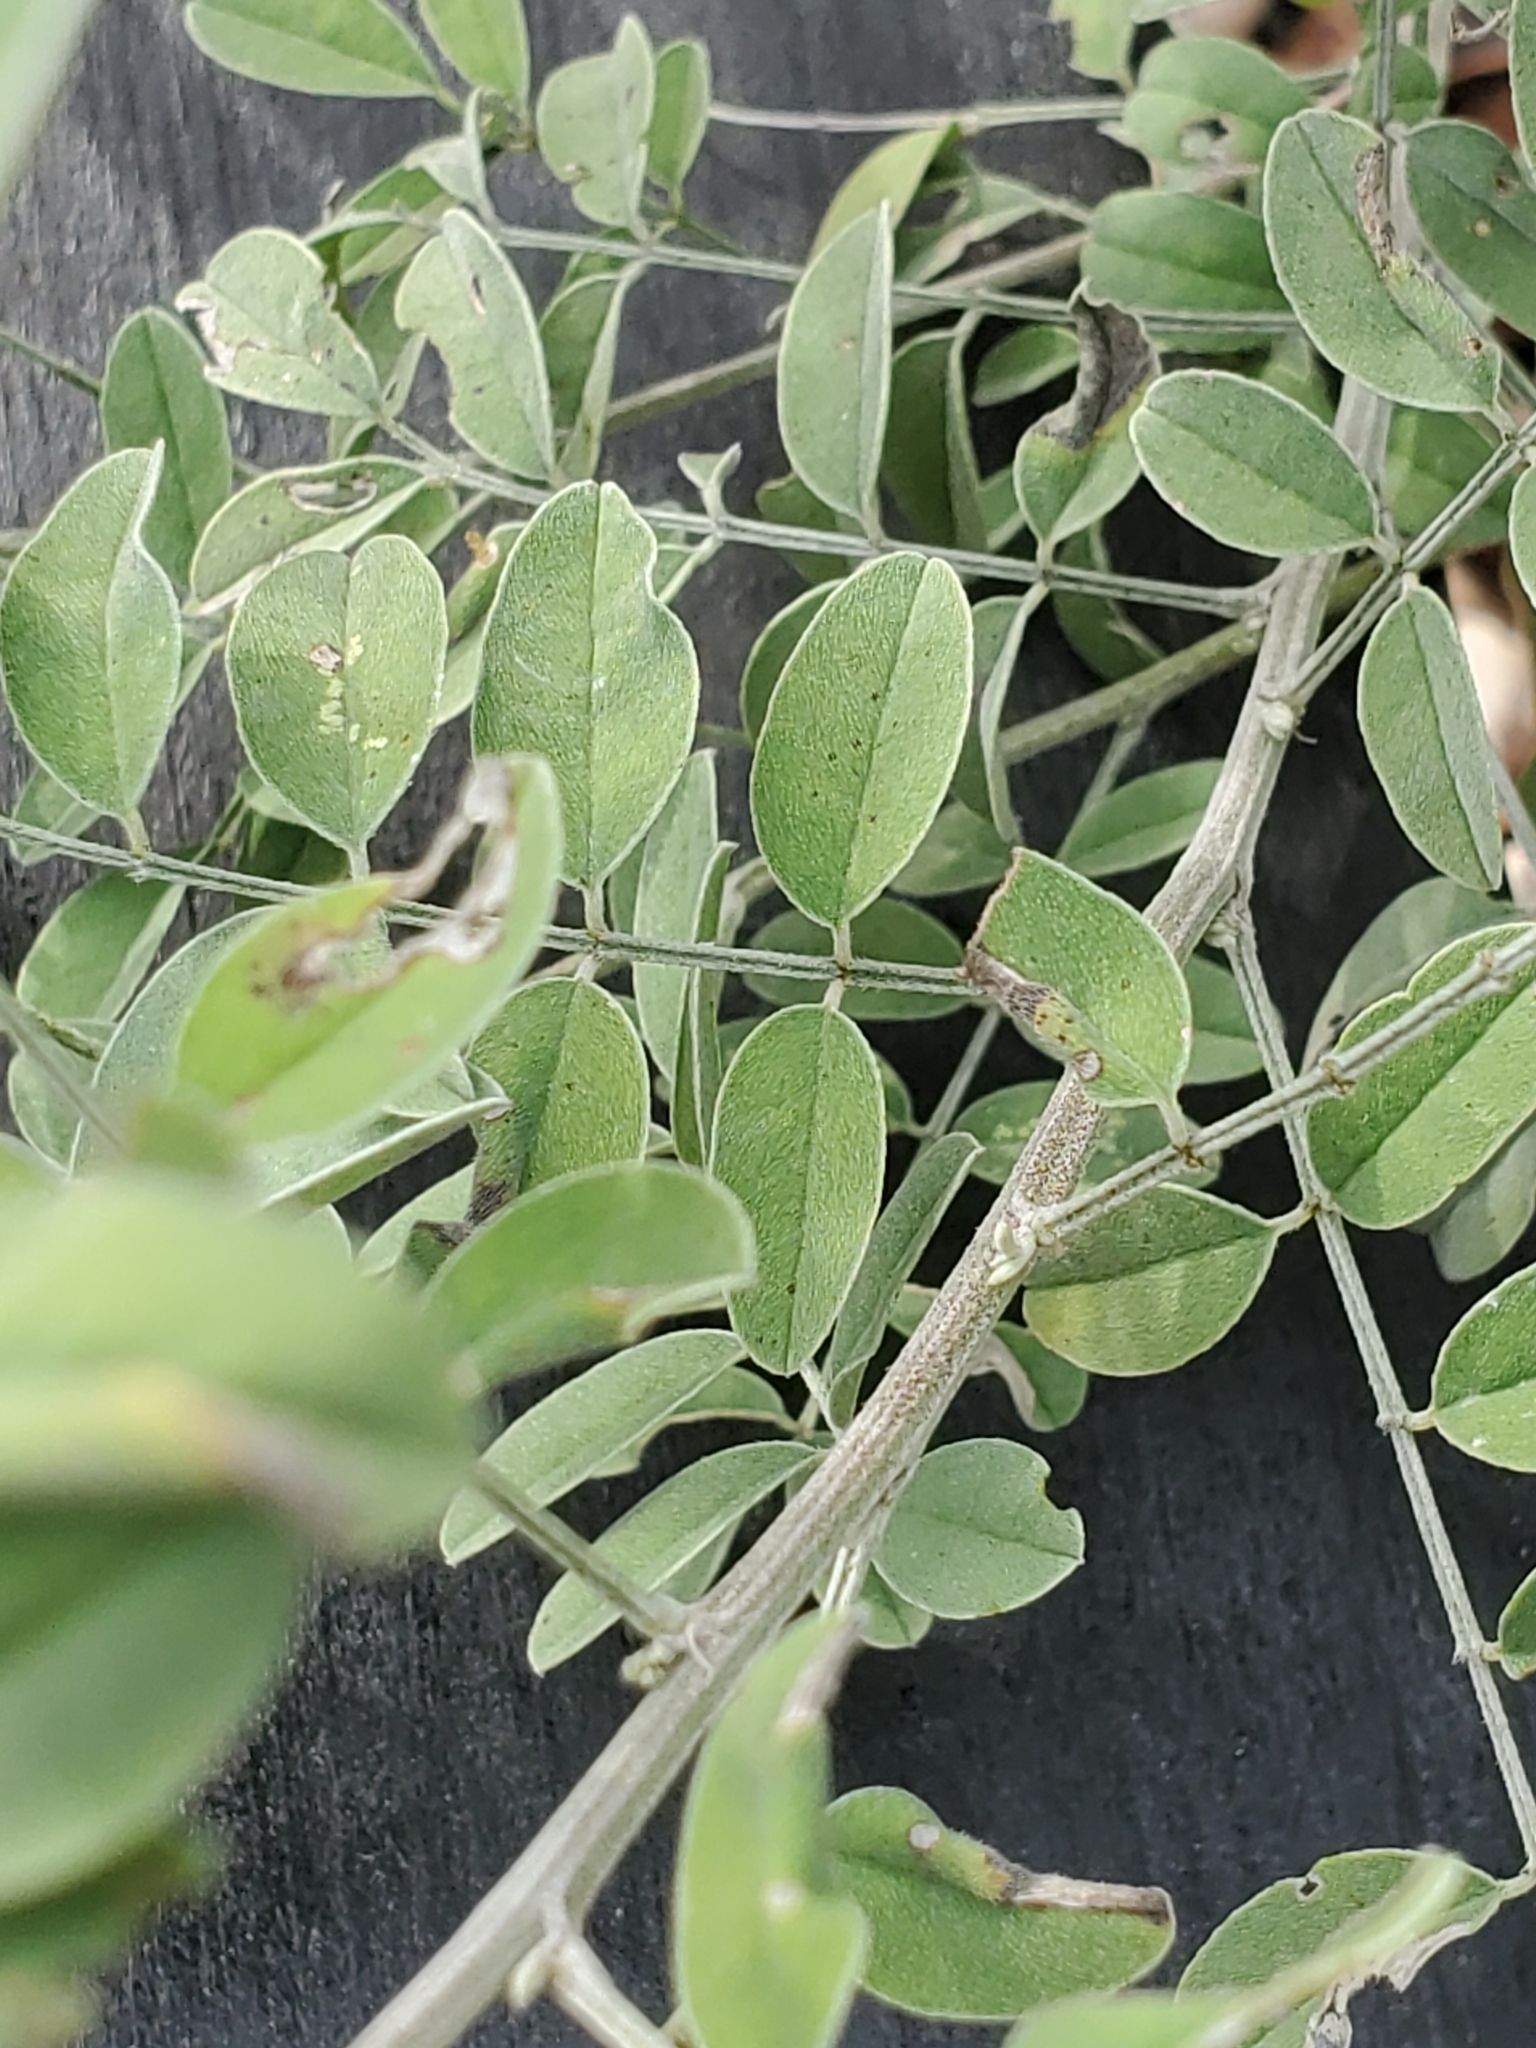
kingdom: Plantae
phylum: Tracheophyta
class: Magnoliopsida
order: Fabales
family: Fabaceae
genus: Indigofera
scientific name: Indigofera lindheimeriana
